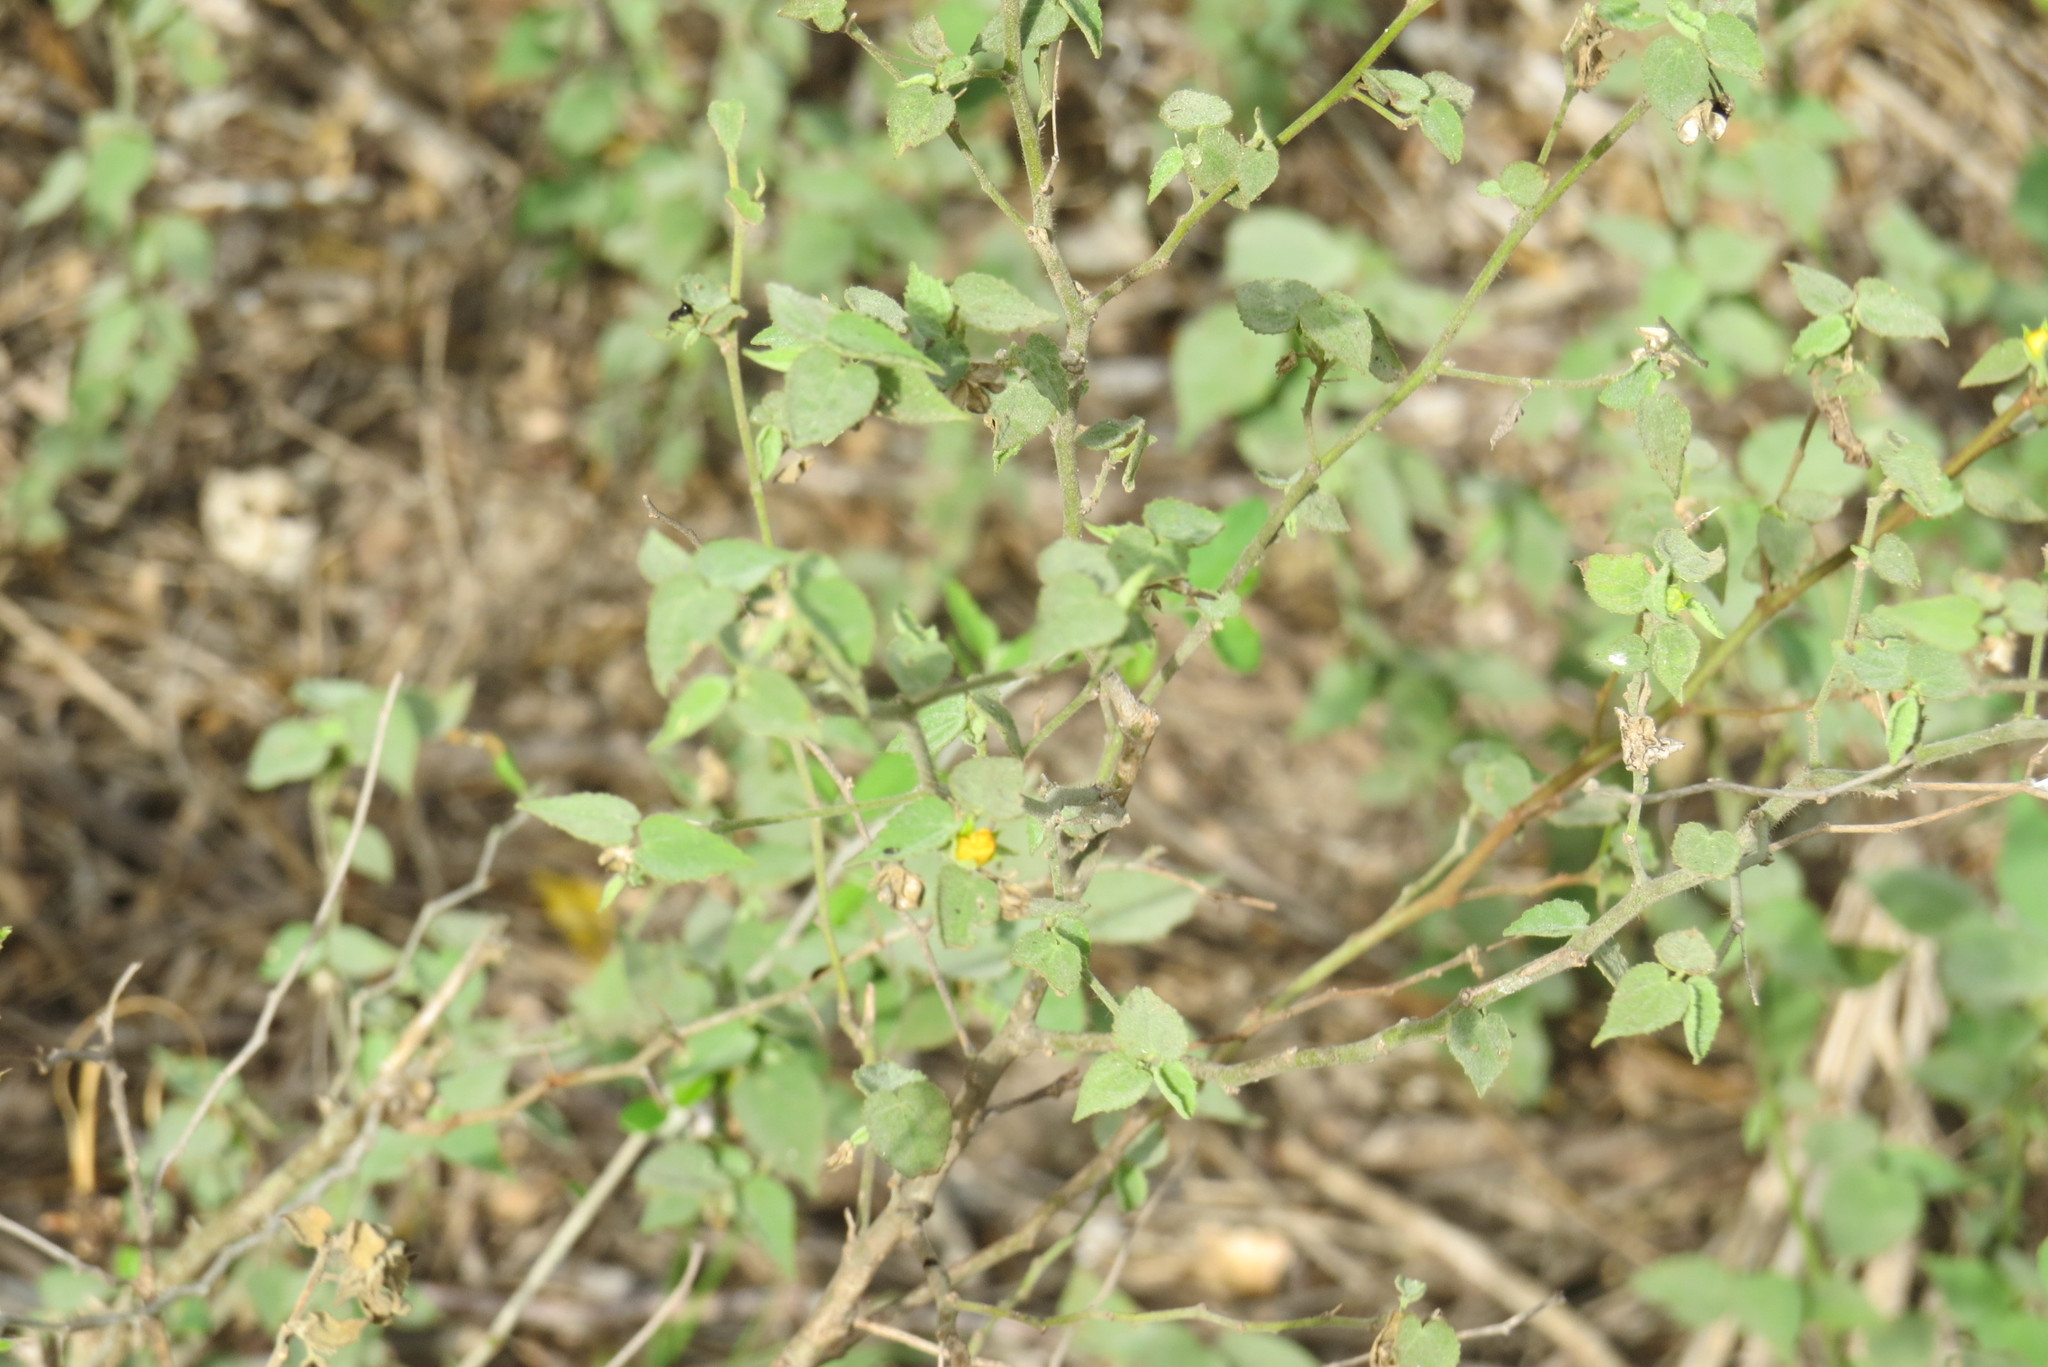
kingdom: Plantae
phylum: Tracheophyta
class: Magnoliopsida
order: Malvales
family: Malvaceae
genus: Abutilon
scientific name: Abutilon viscosum
